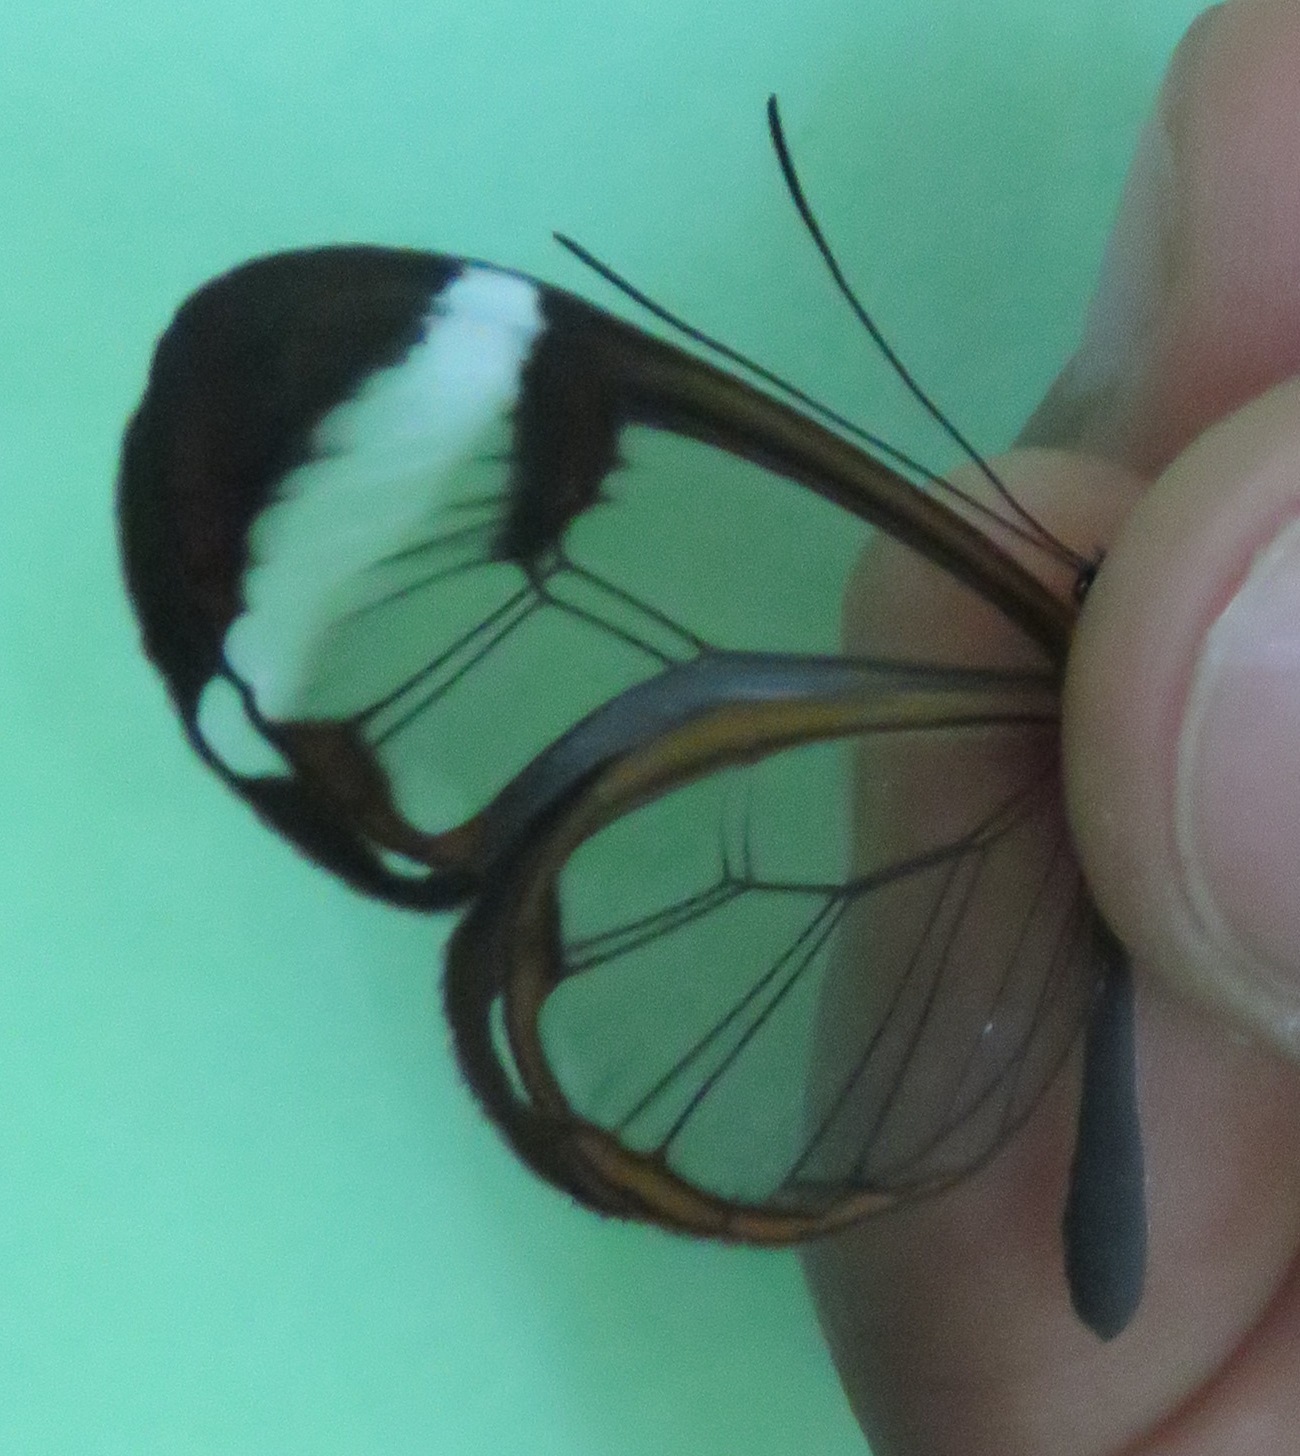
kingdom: Animalia
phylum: Arthropoda
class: Insecta
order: Lepidoptera
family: Nymphalidae
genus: Greta
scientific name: Greta morgane
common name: Thick-tipped greta
